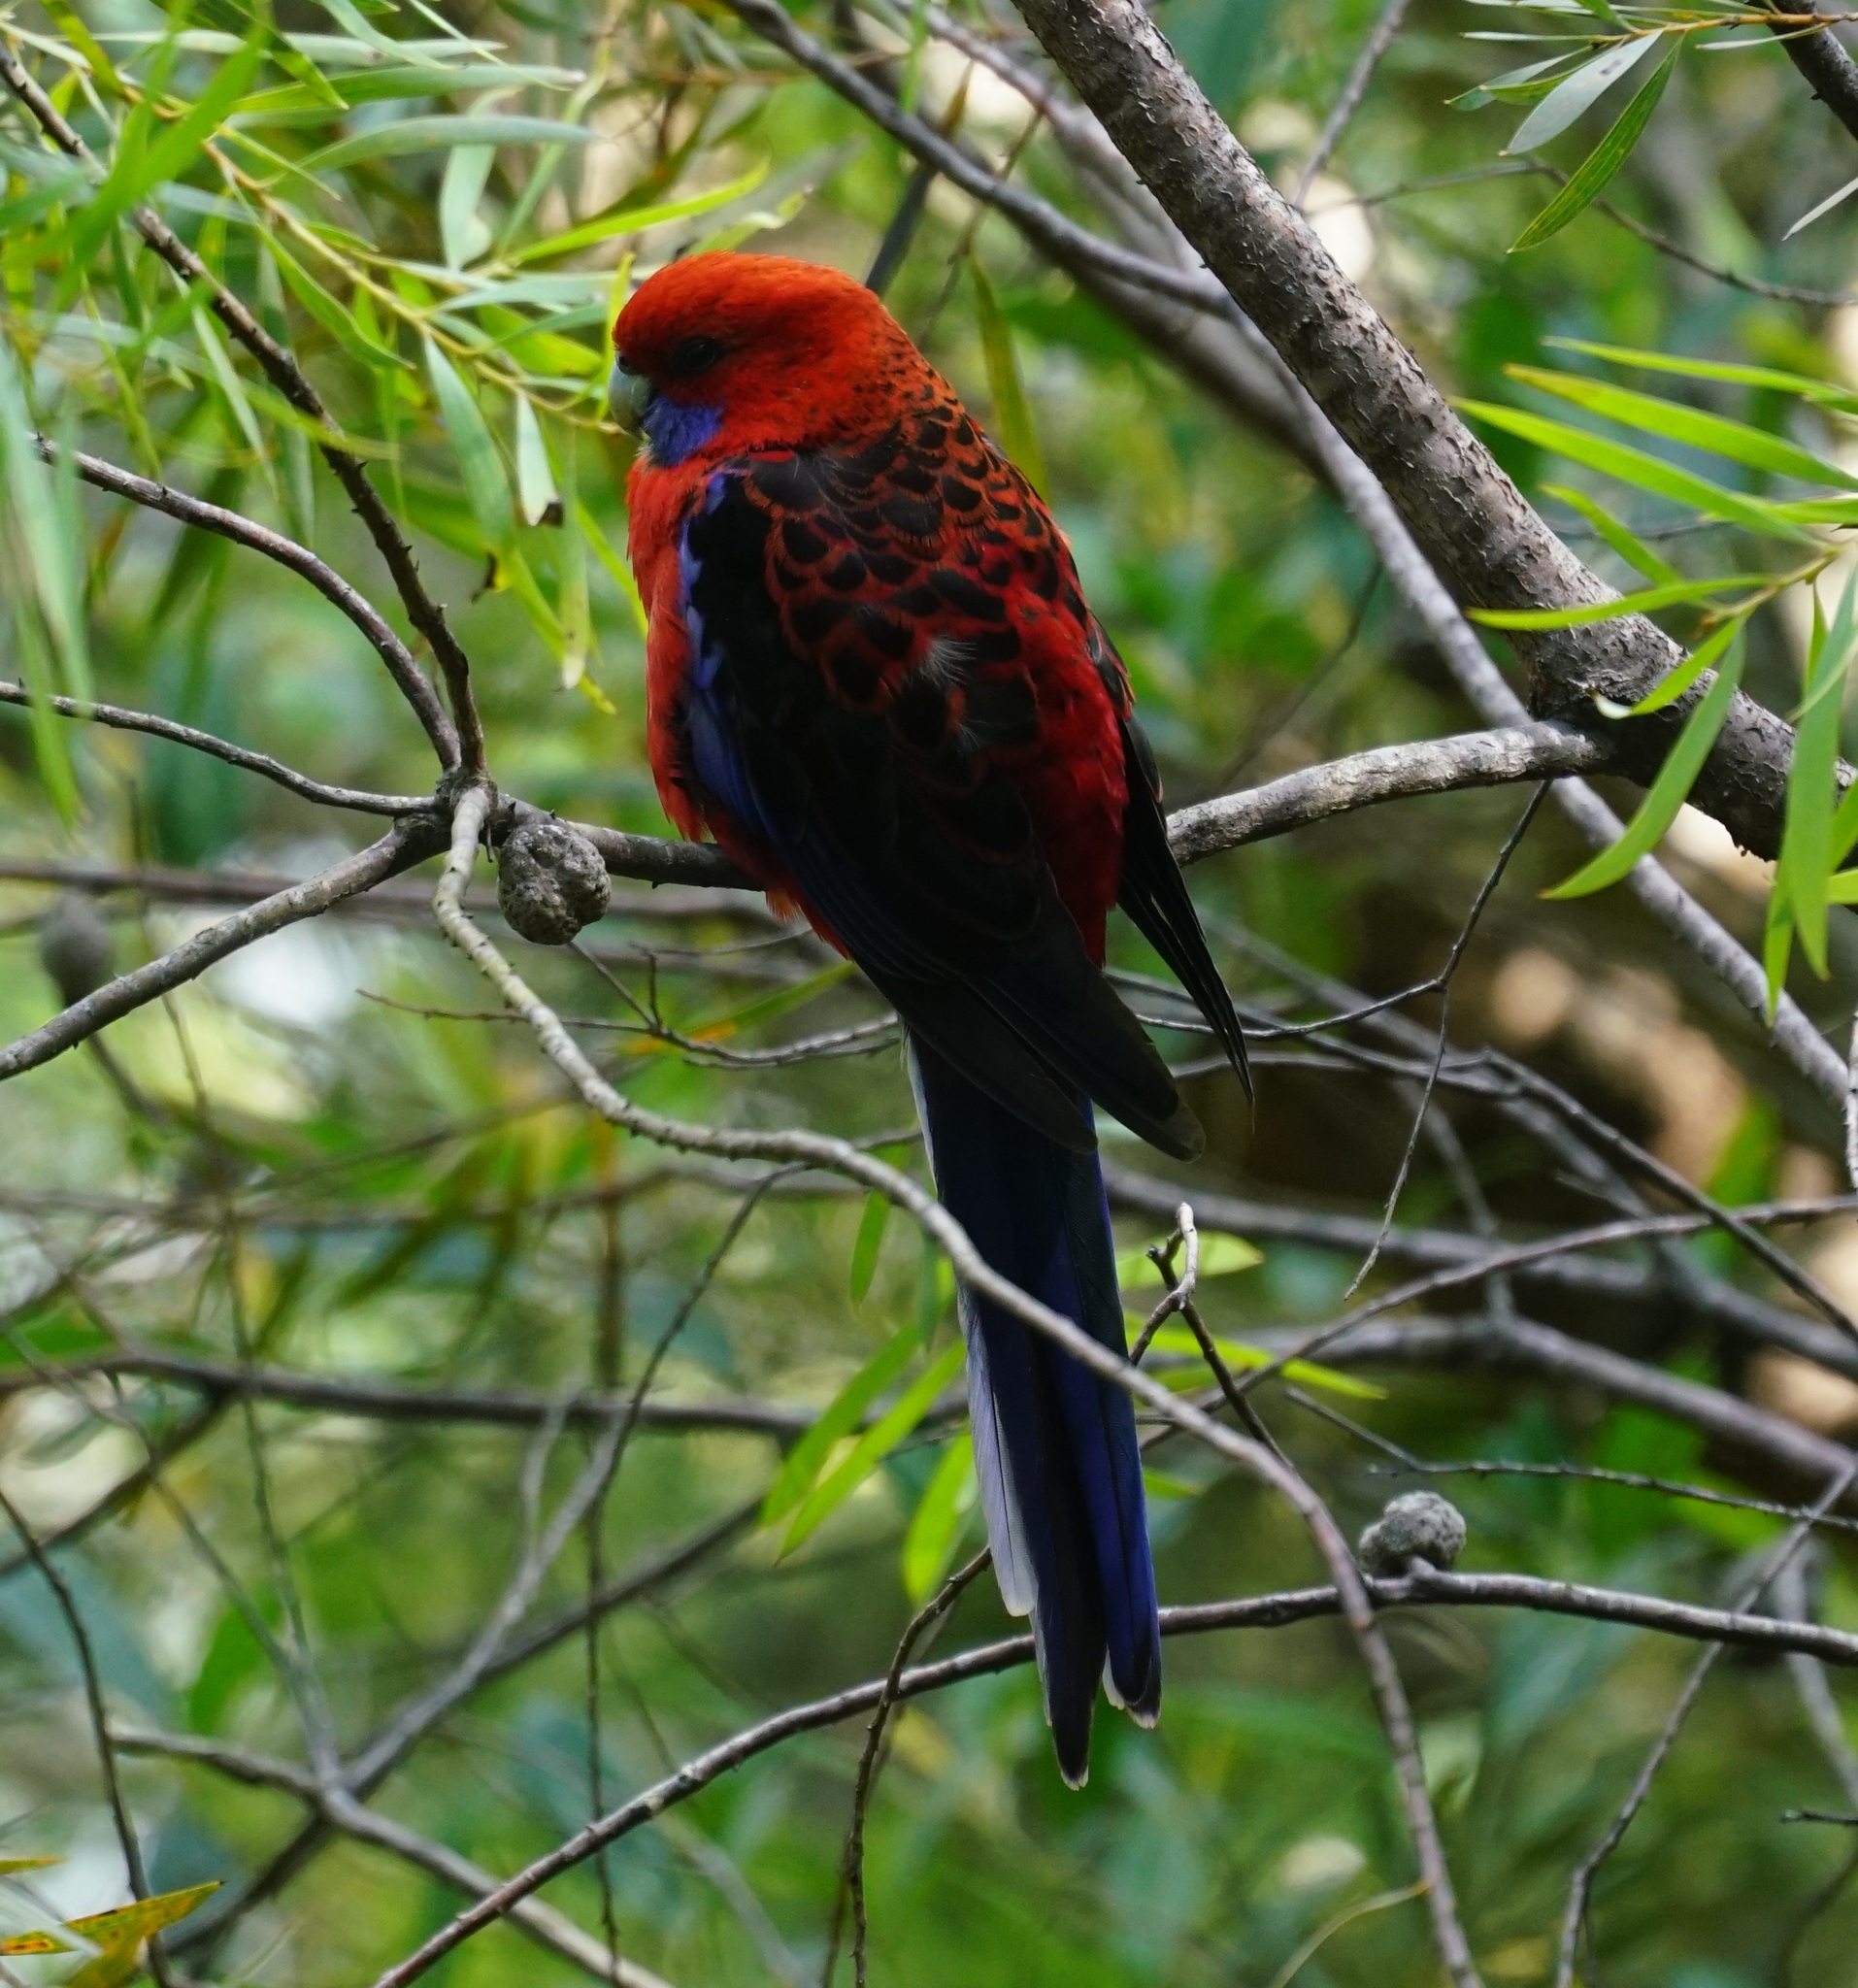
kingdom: Animalia
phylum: Chordata
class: Aves
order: Psittaciformes
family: Psittacidae
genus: Platycercus
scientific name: Platycercus elegans
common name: Crimson rosella
